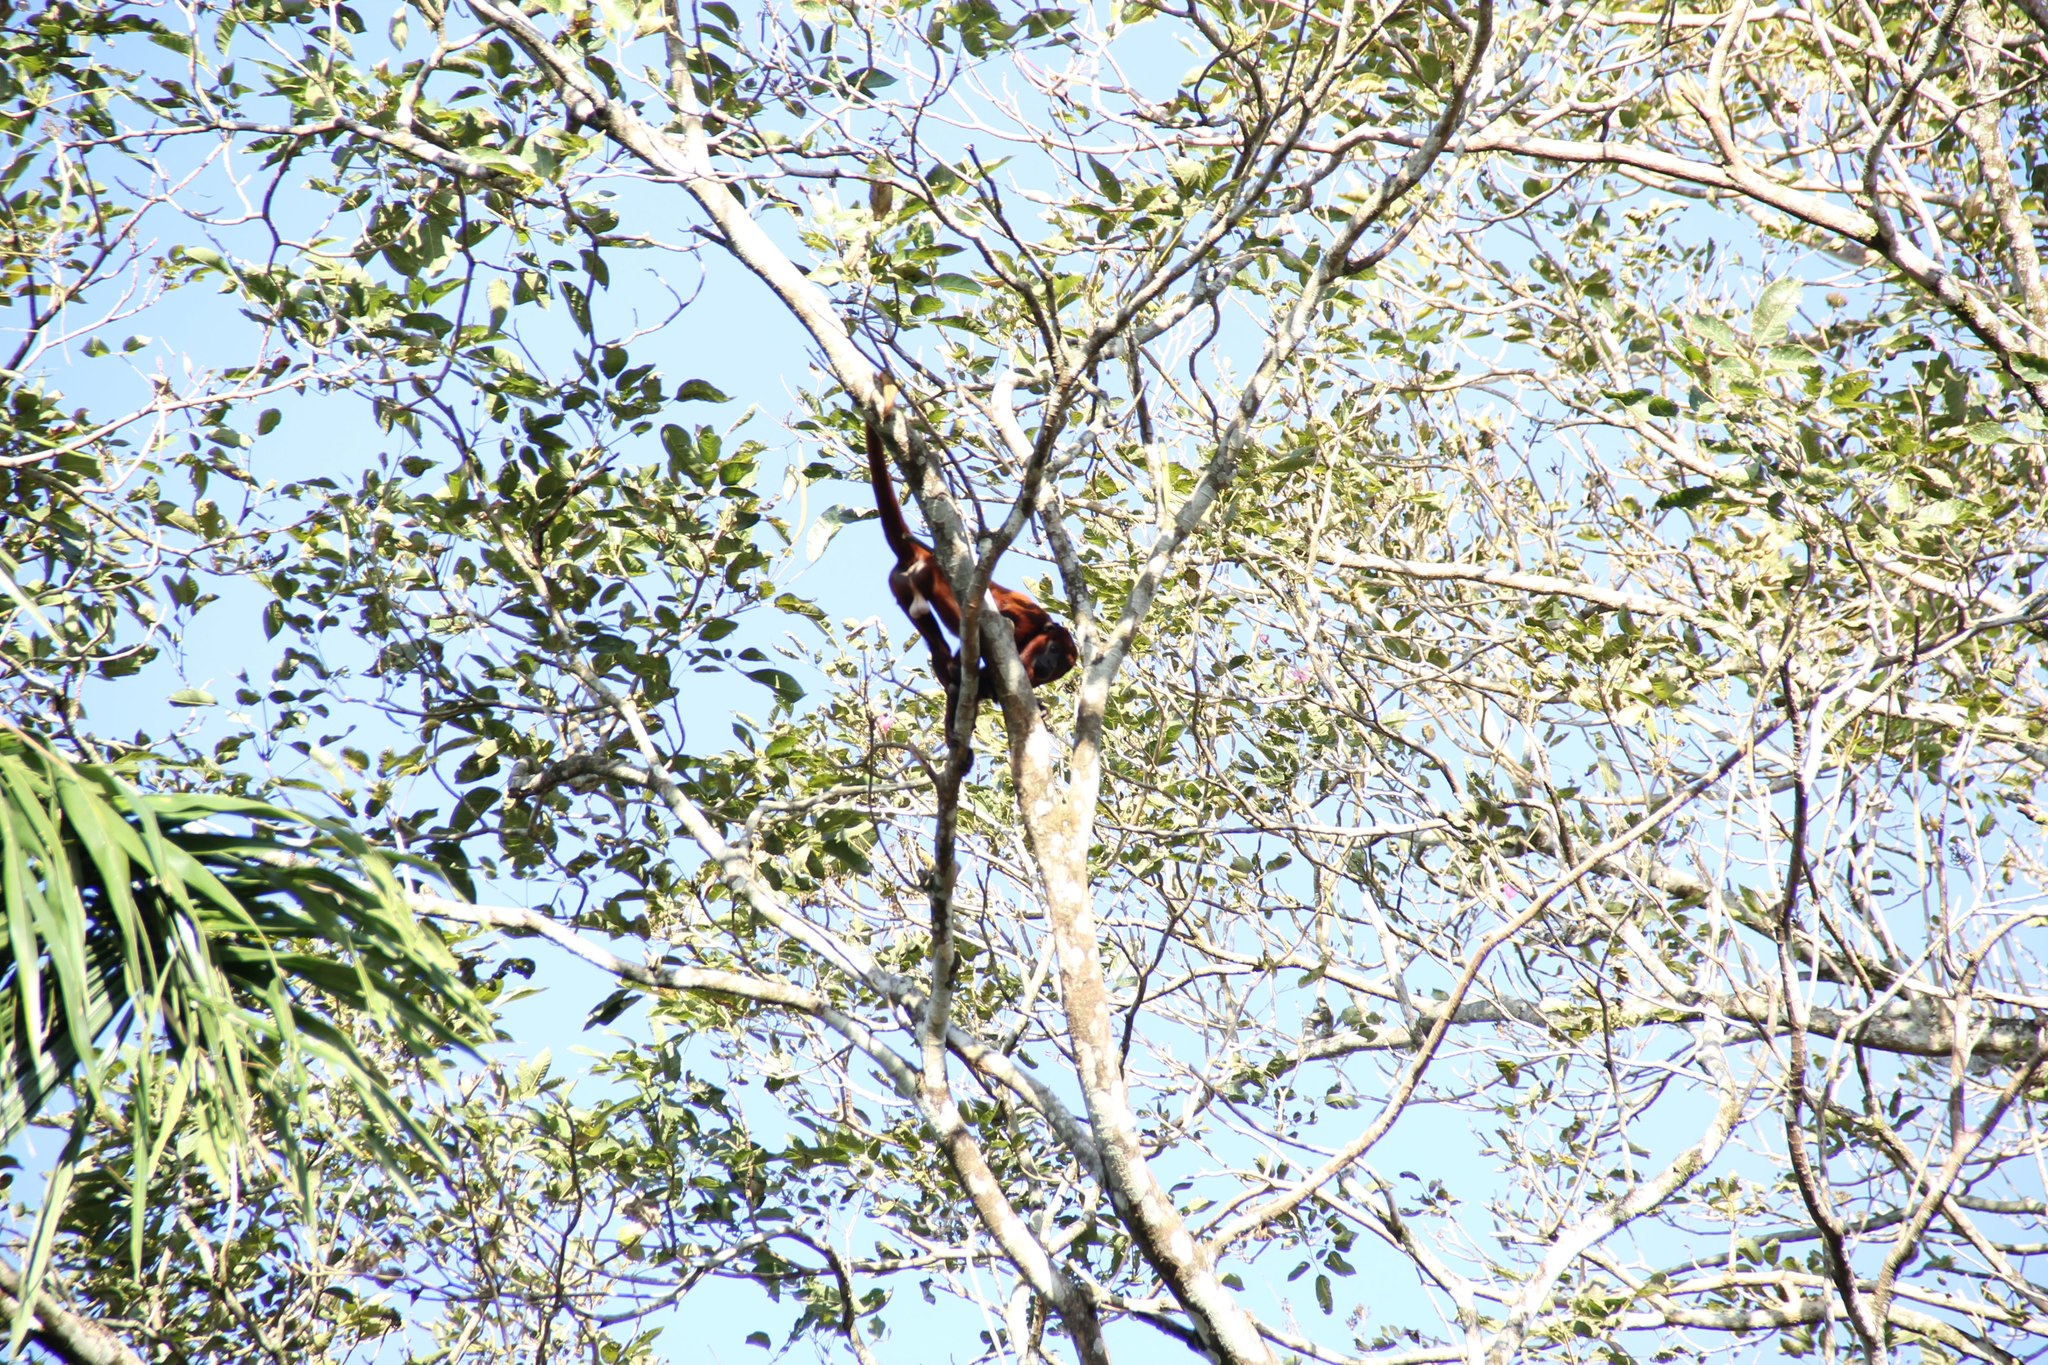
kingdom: Animalia
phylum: Chordata
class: Mammalia
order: Primates
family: Atelidae
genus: Alouatta
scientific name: Alouatta seniculus
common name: Venezuelan red howler
